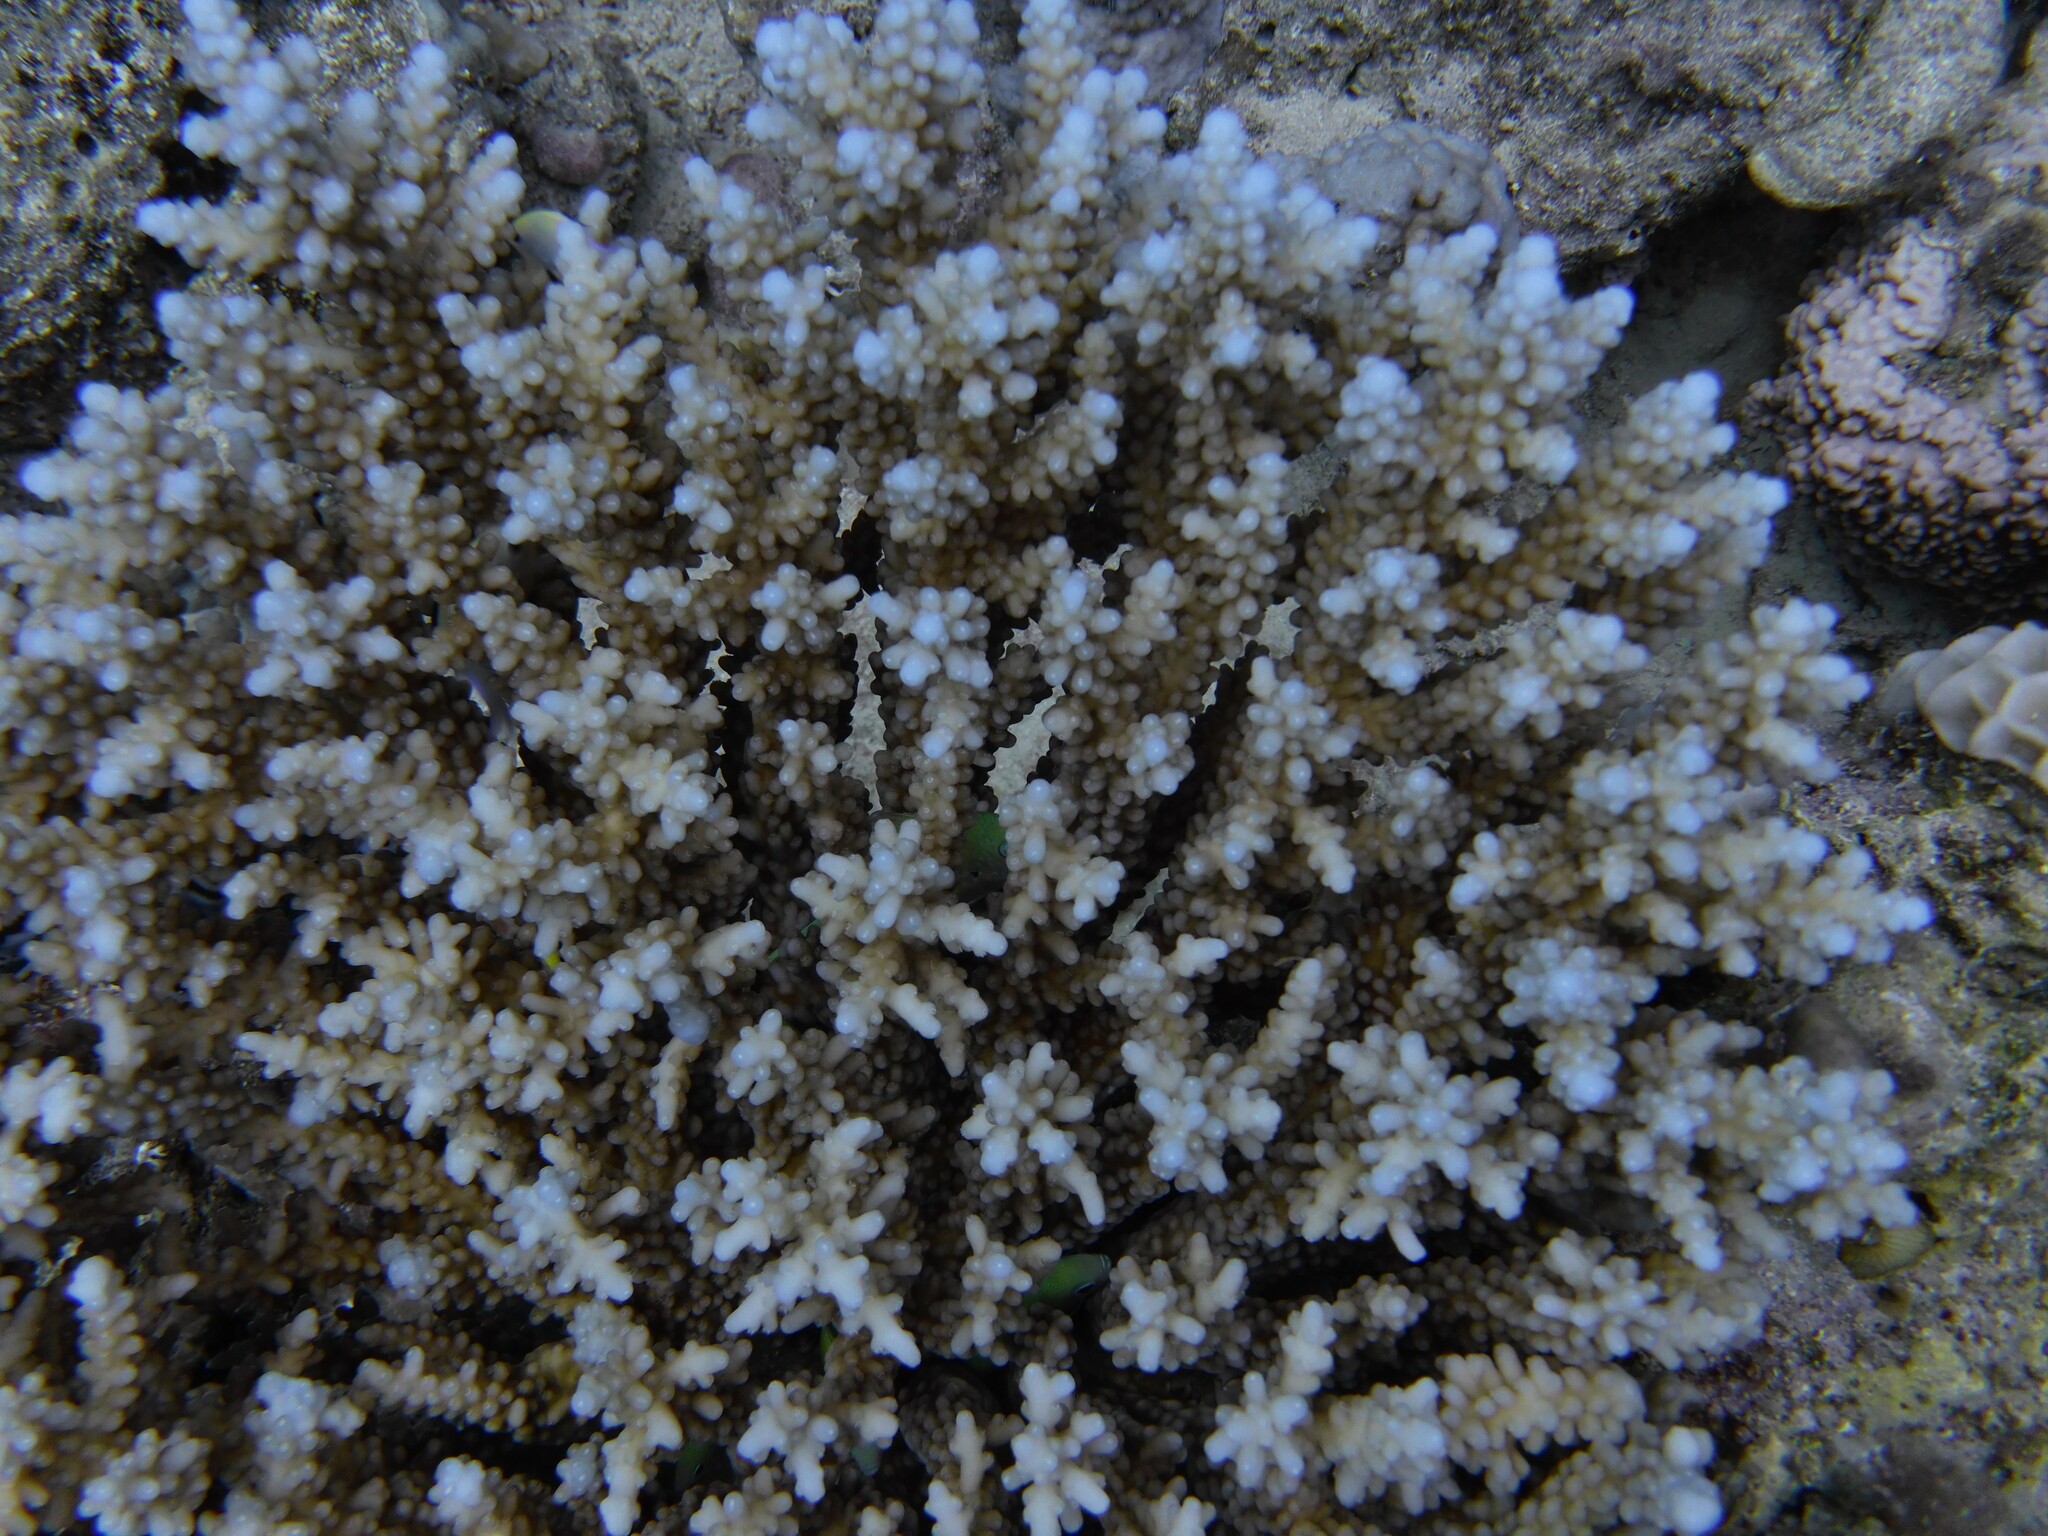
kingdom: Animalia
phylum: Chordata
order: Perciformes
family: Pomacentridae
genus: Chromis
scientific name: Chromis viridis
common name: Blue-green chromis
